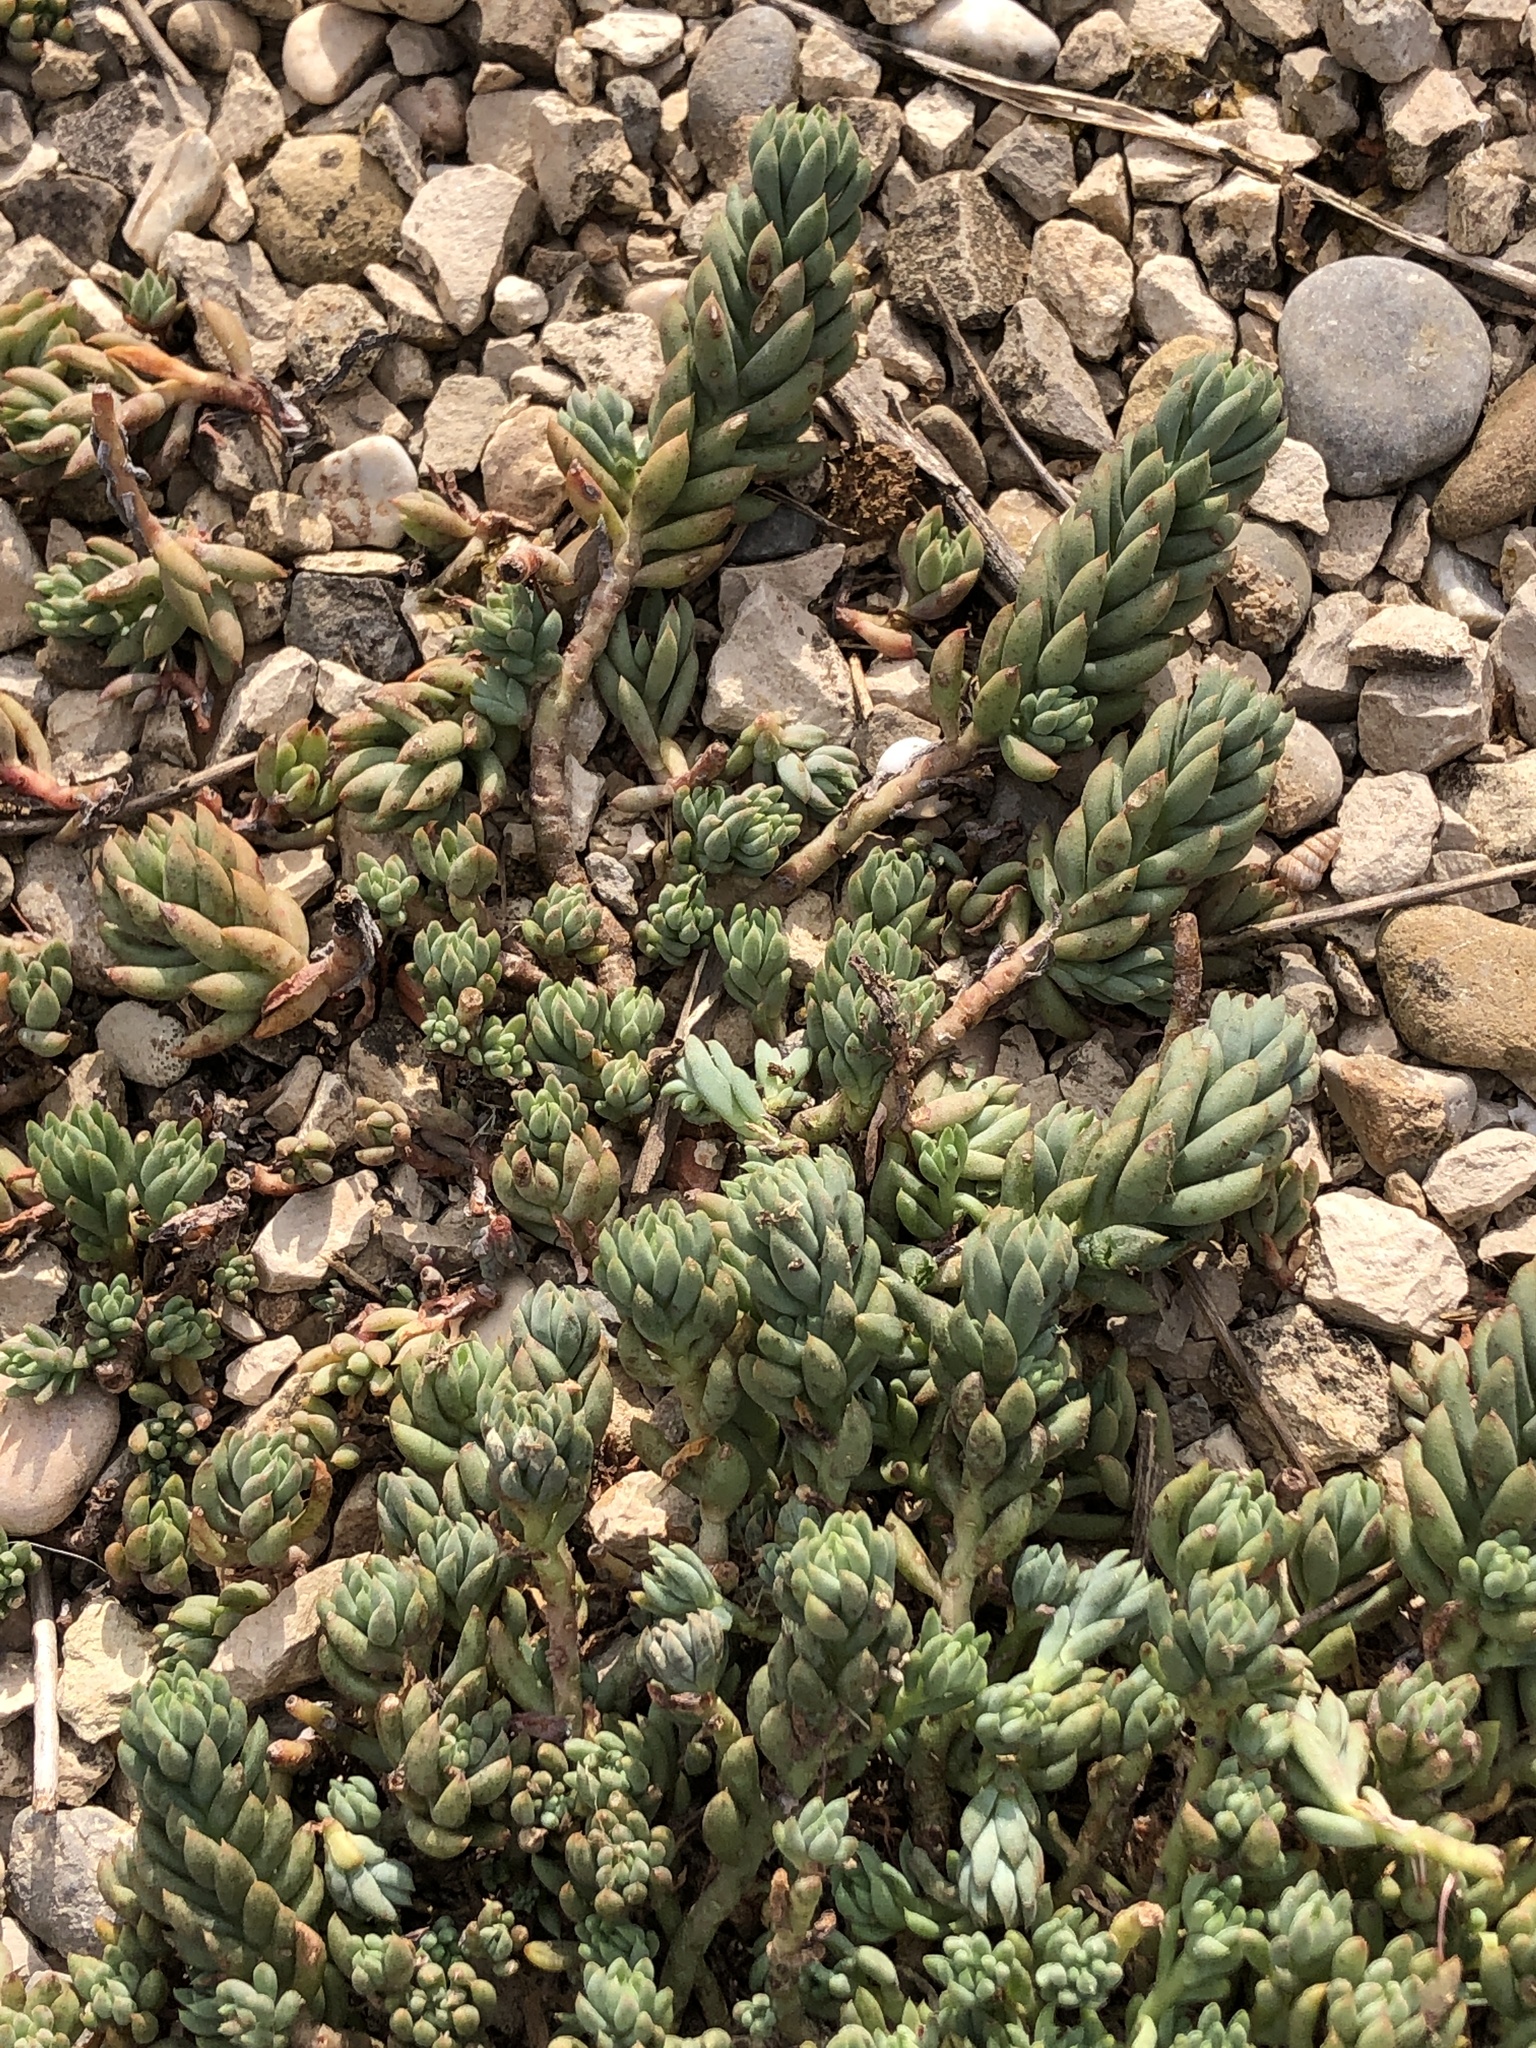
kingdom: Plantae
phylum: Tracheophyta
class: Magnoliopsida
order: Saxifragales
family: Crassulaceae
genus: Petrosedum
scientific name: Petrosedum sediforme
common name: Pale stonecrop
